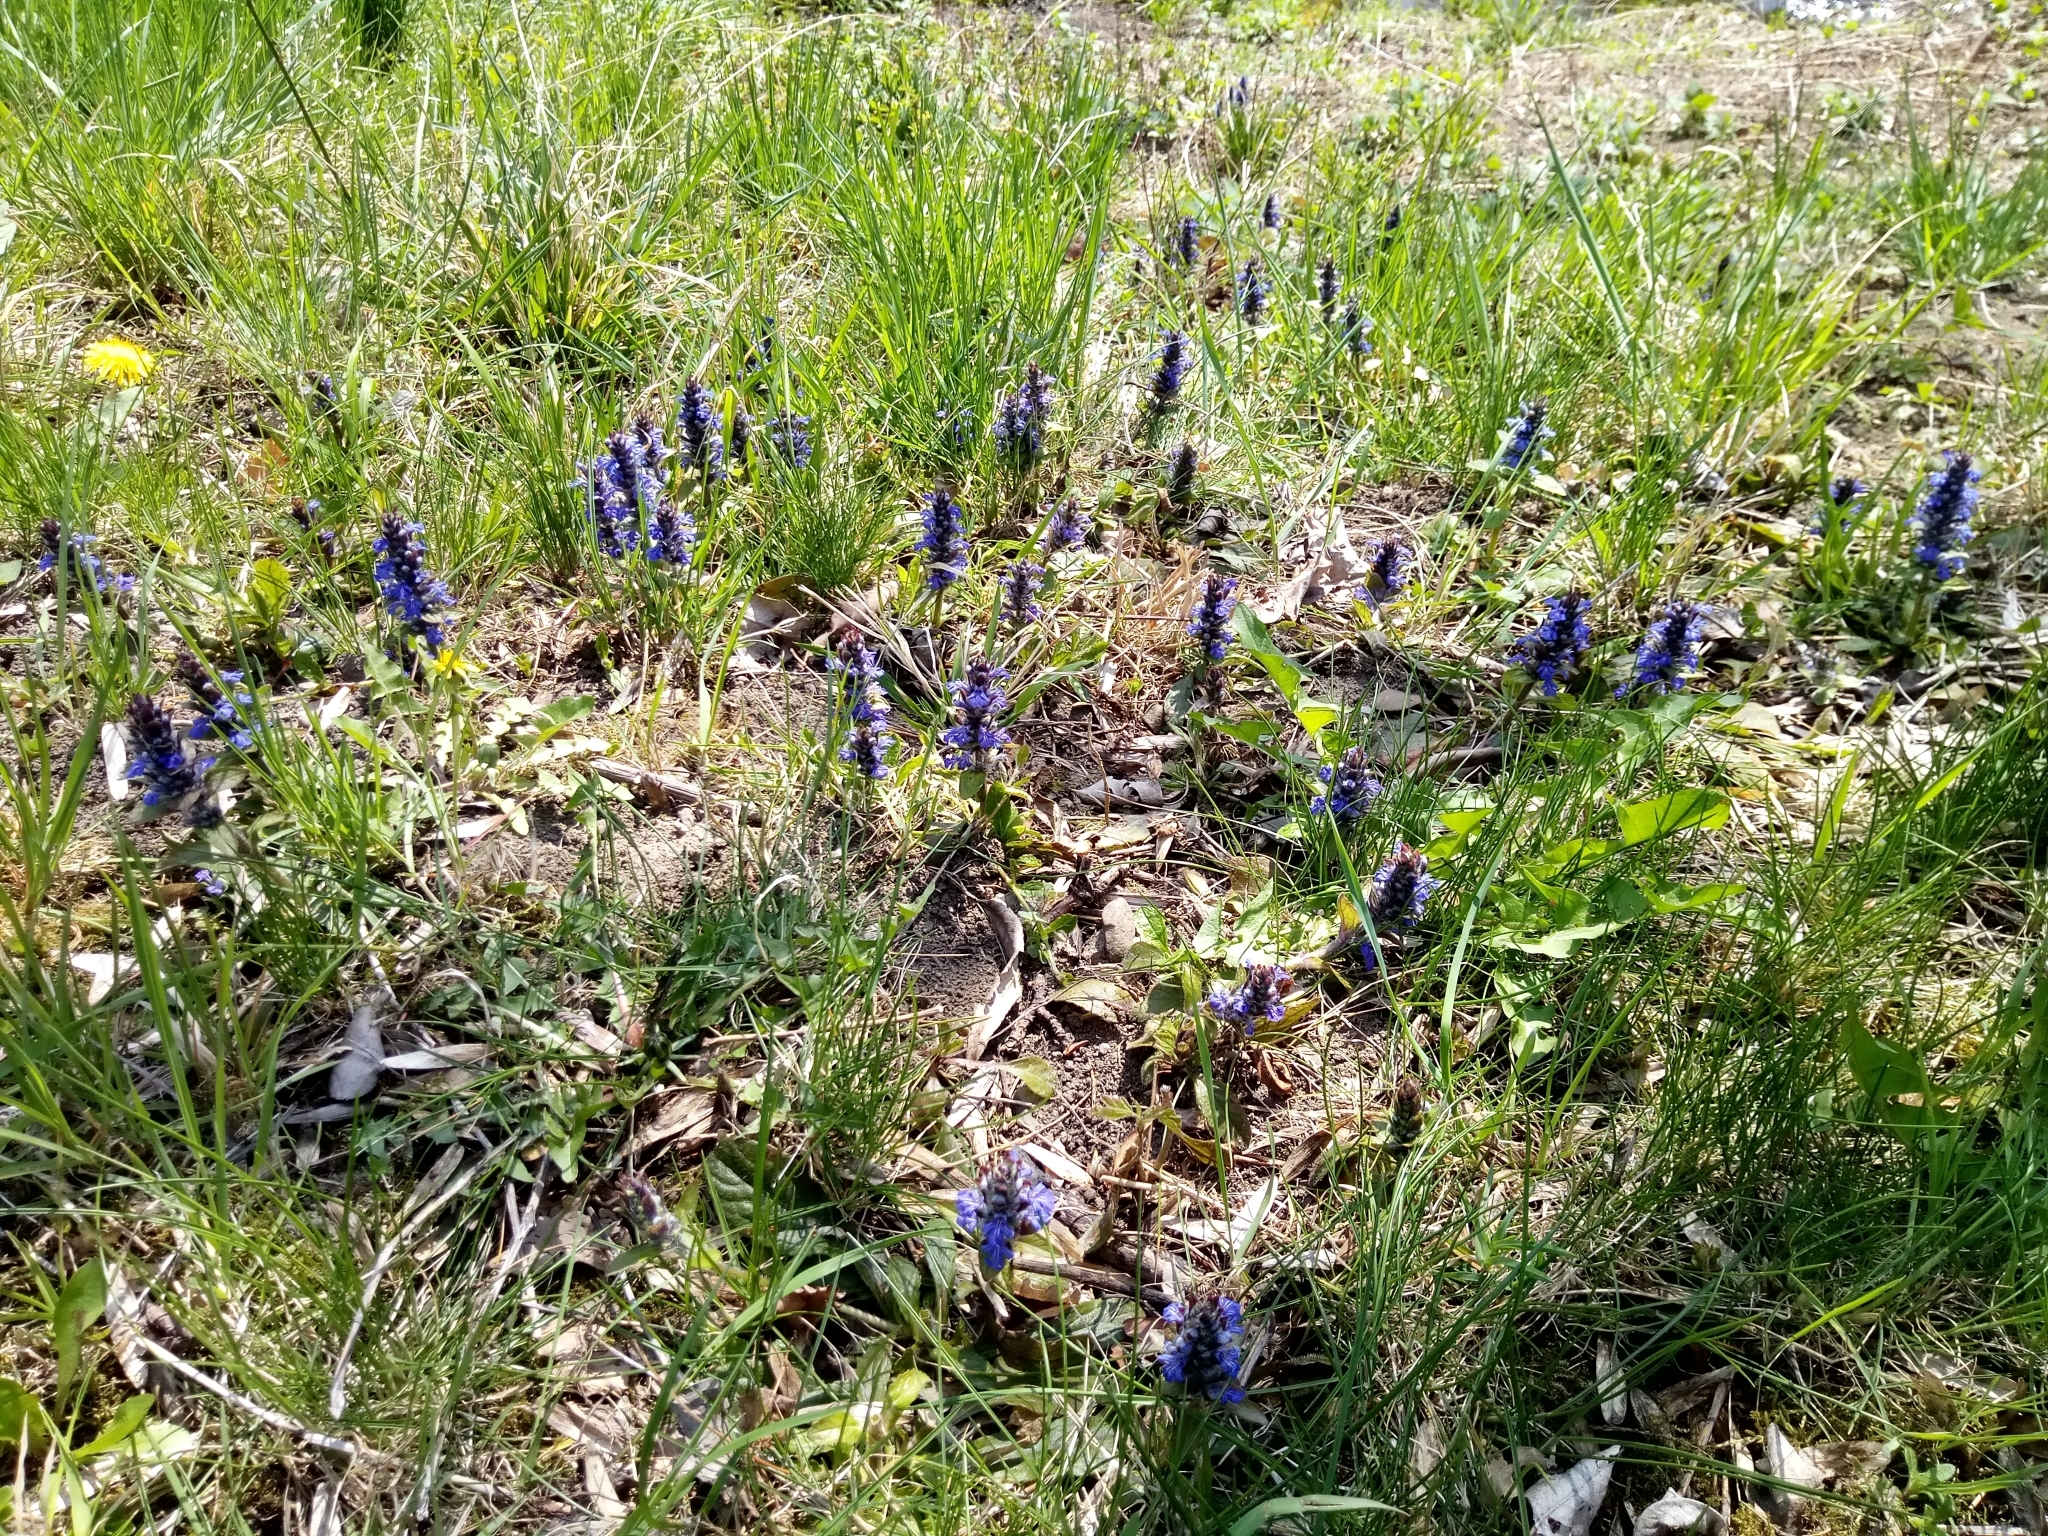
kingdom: Plantae
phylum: Tracheophyta
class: Magnoliopsida
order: Lamiales
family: Lamiaceae
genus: Ajuga
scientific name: Ajuga reptans
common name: Bugle
